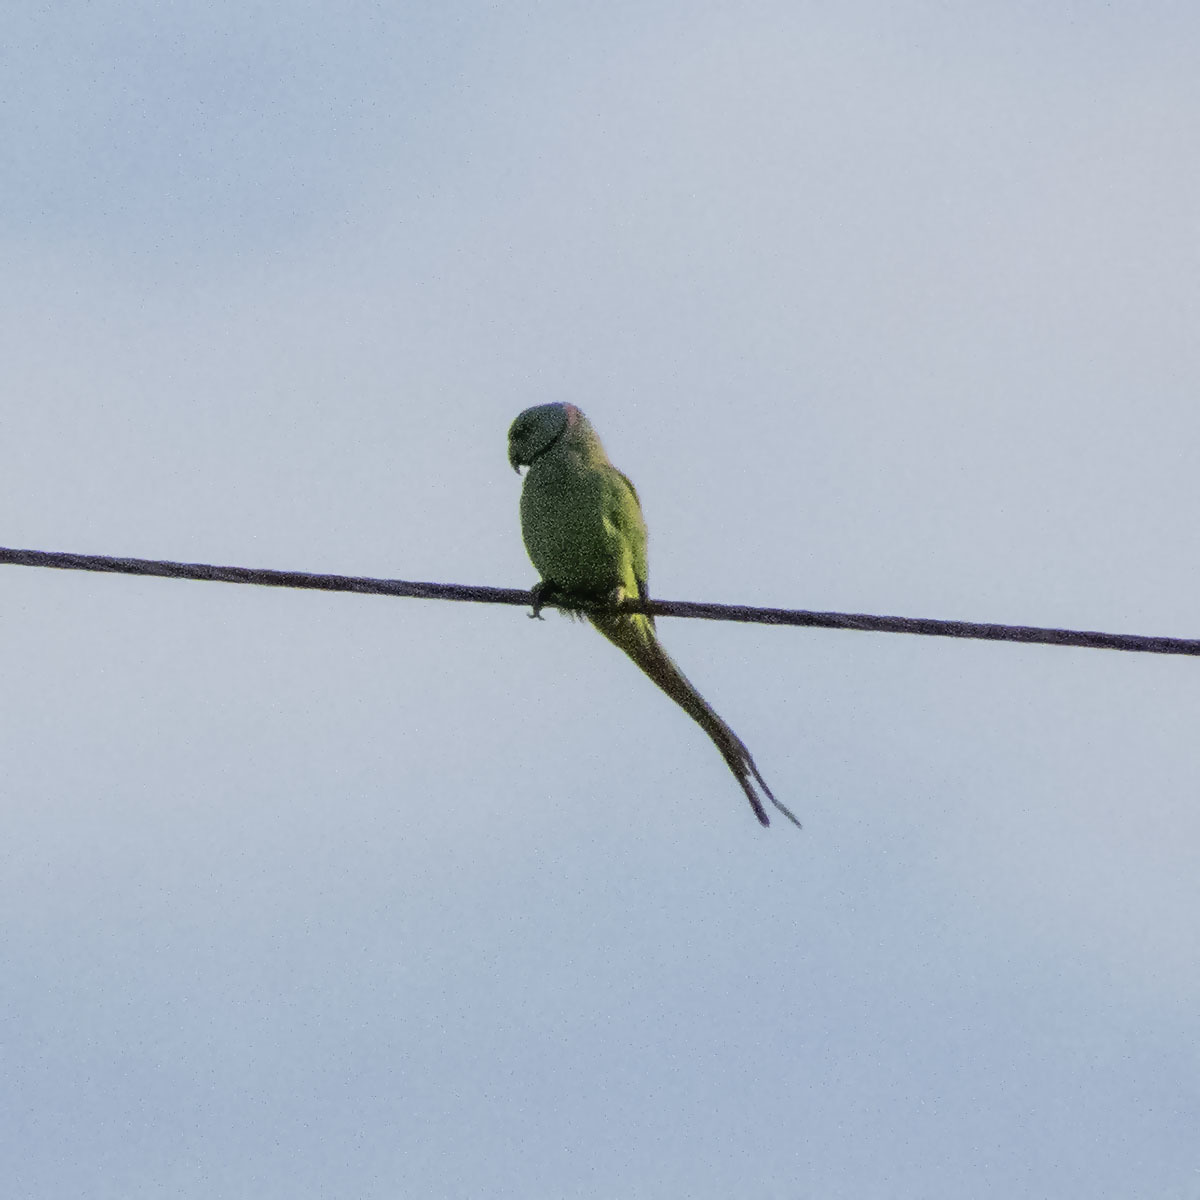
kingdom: Animalia
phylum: Chordata
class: Aves
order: Psittaciformes
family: Psittacidae
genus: Psittacula
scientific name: Psittacula krameri
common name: Rose-ringed parakeet
